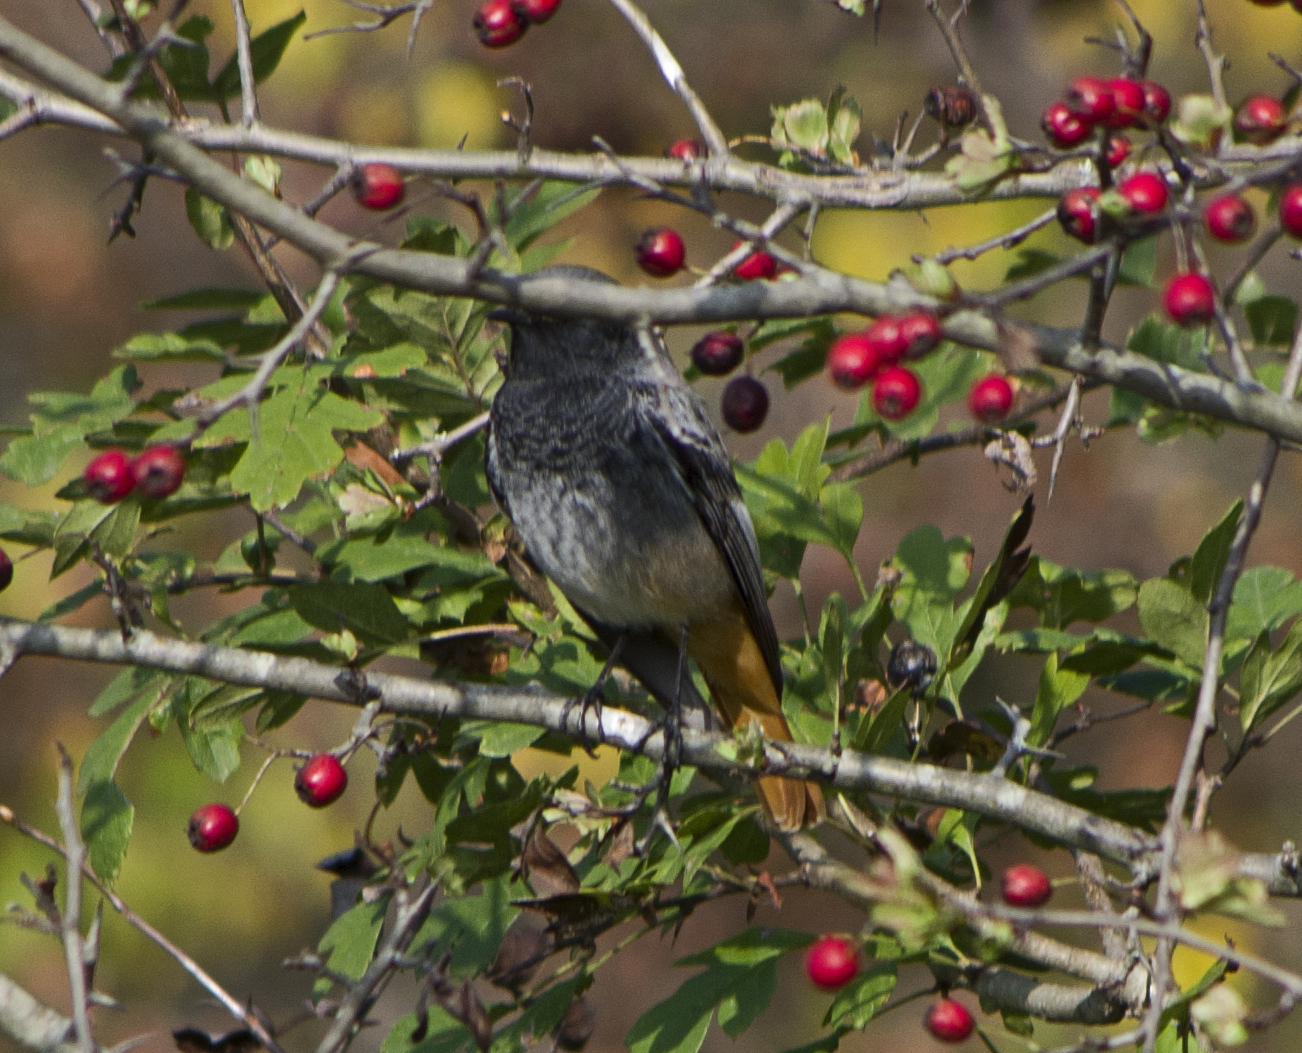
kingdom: Animalia
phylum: Chordata
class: Aves
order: Passeriformes
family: Muscicapidae
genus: Phoenicurus
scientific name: Phoenicurus ochruros
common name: Black redstart
